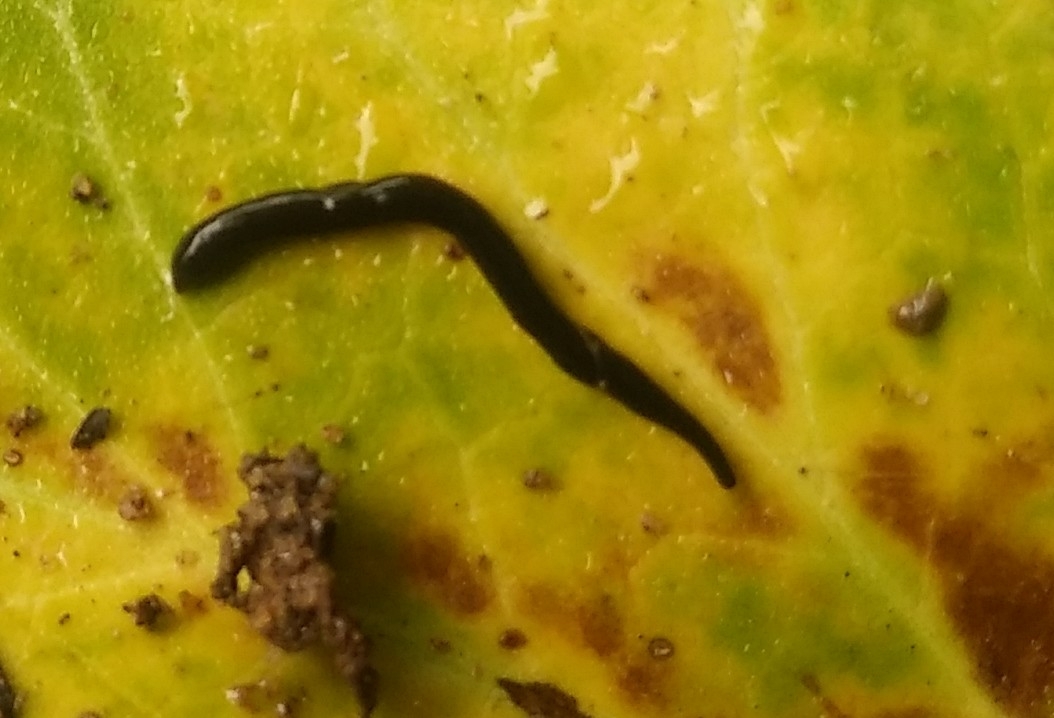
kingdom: Animalia
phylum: Platyhelminthes
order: Tricladida
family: Geoplanidae
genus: Microplana
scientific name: Microplana terrestris
